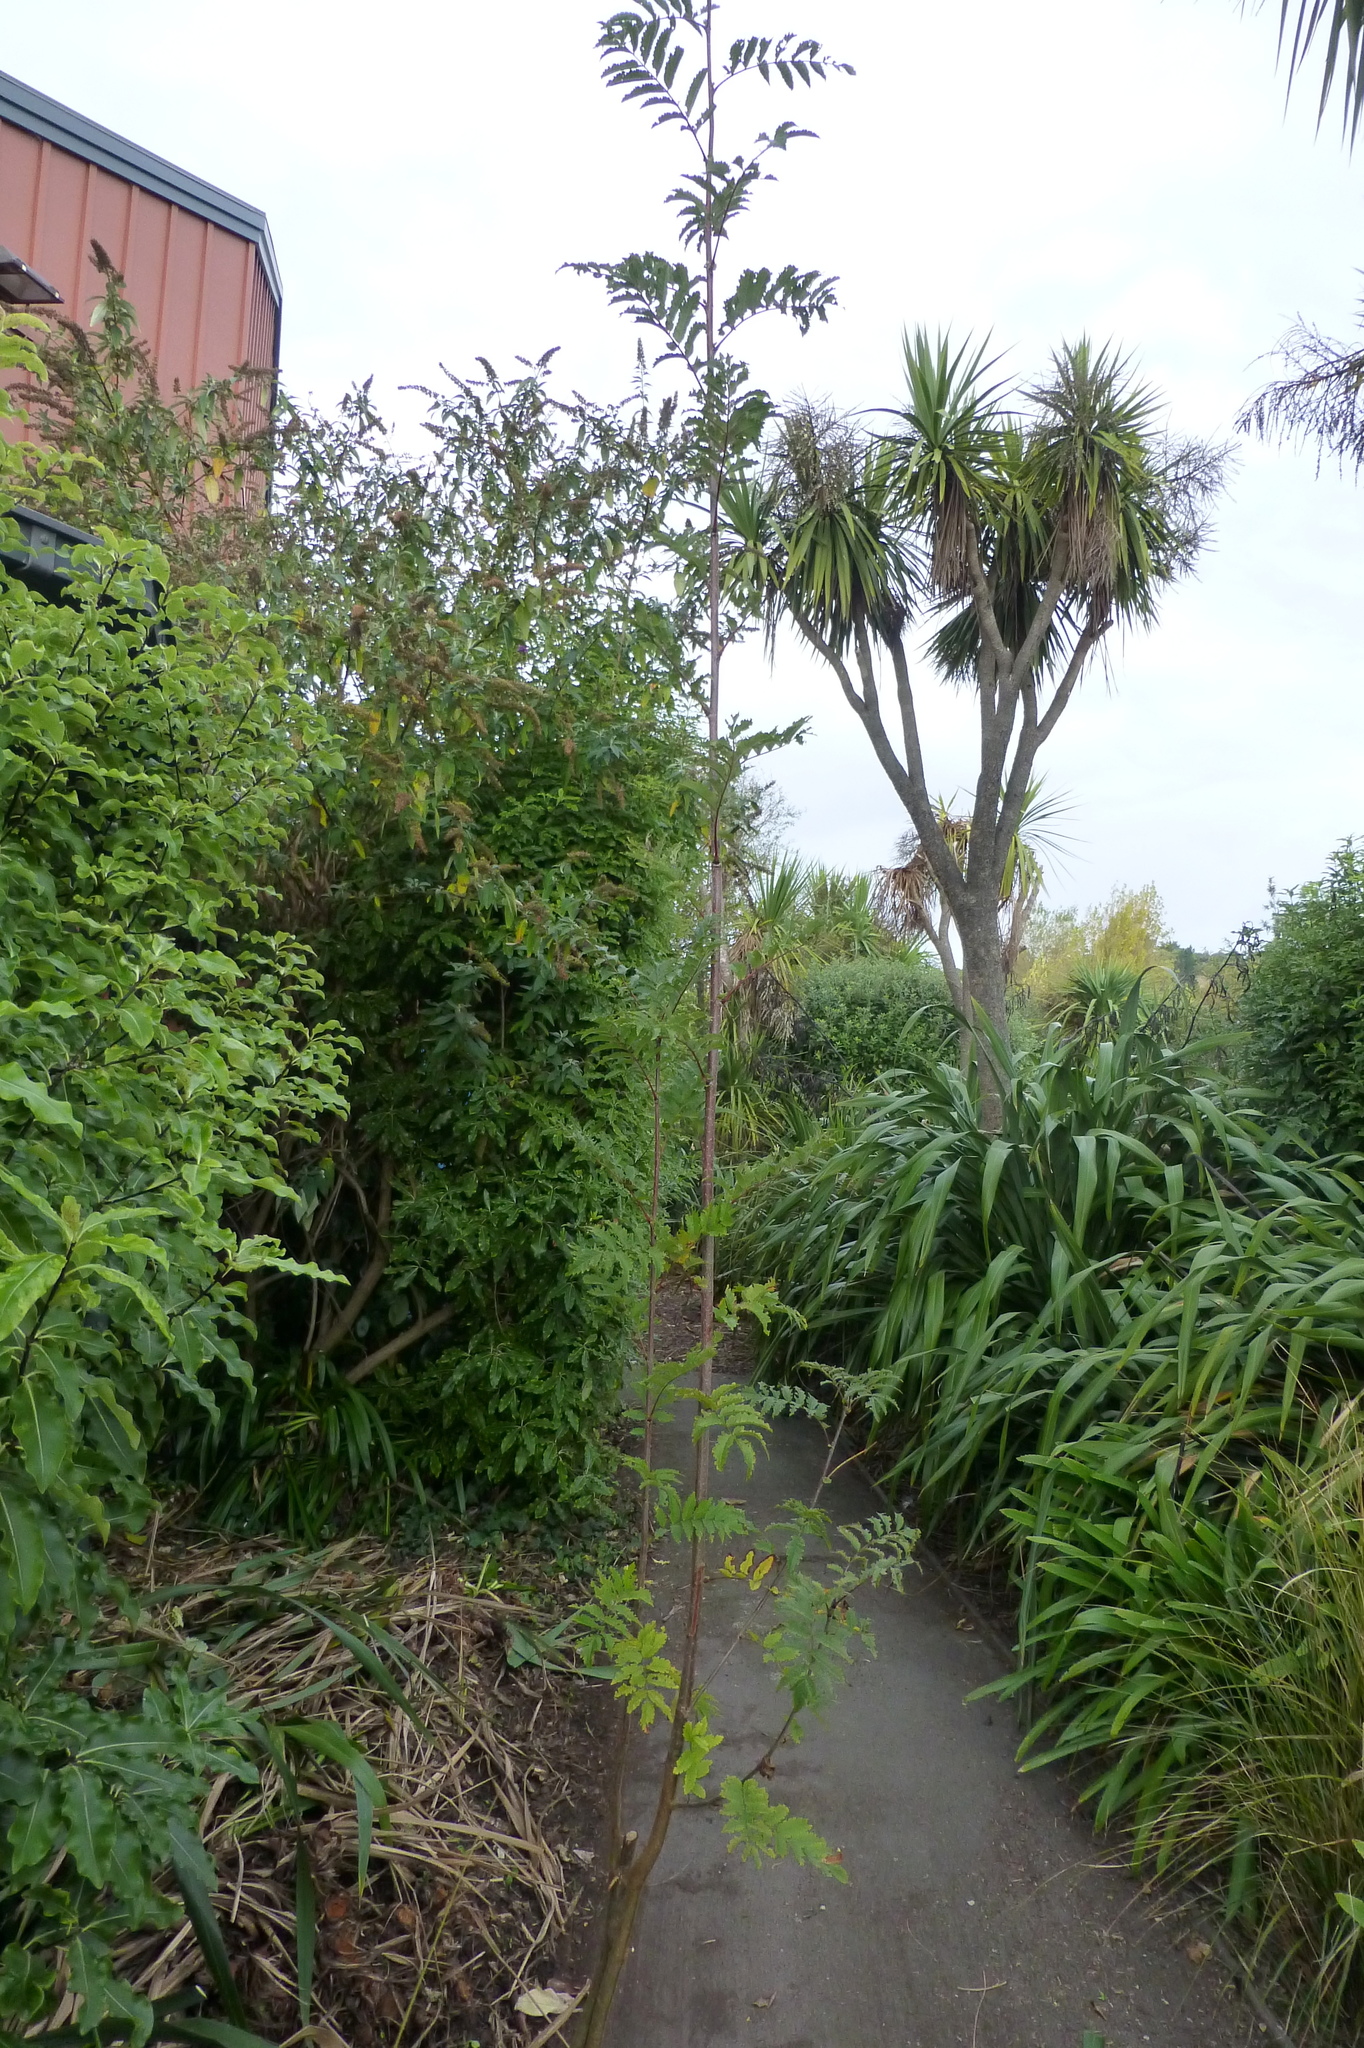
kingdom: Plantae
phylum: Tracheophyta
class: Magnoliopsida
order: Rosales
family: Rosaceae
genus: Sorbus
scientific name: Sorbus aucuparia
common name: Rowan
